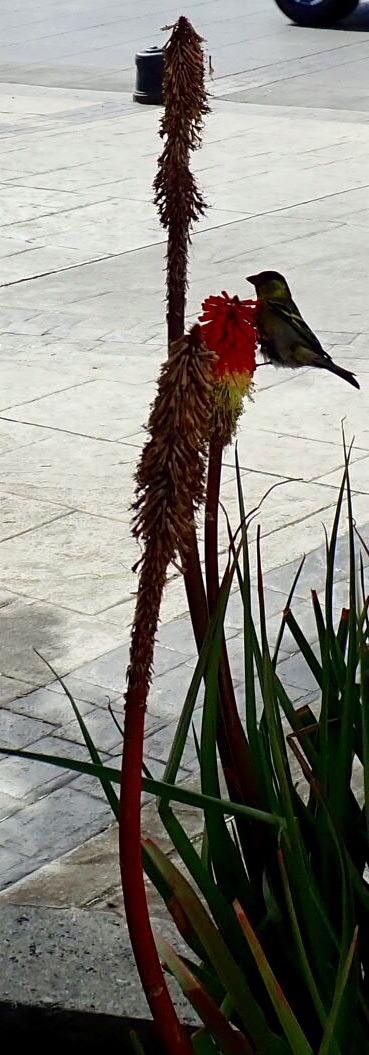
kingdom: Animalia
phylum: Chordata
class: Aves
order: Passeriformes
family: Fringillidae
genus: Spinus
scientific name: Spinus barbatus
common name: Black-chinned siskin
